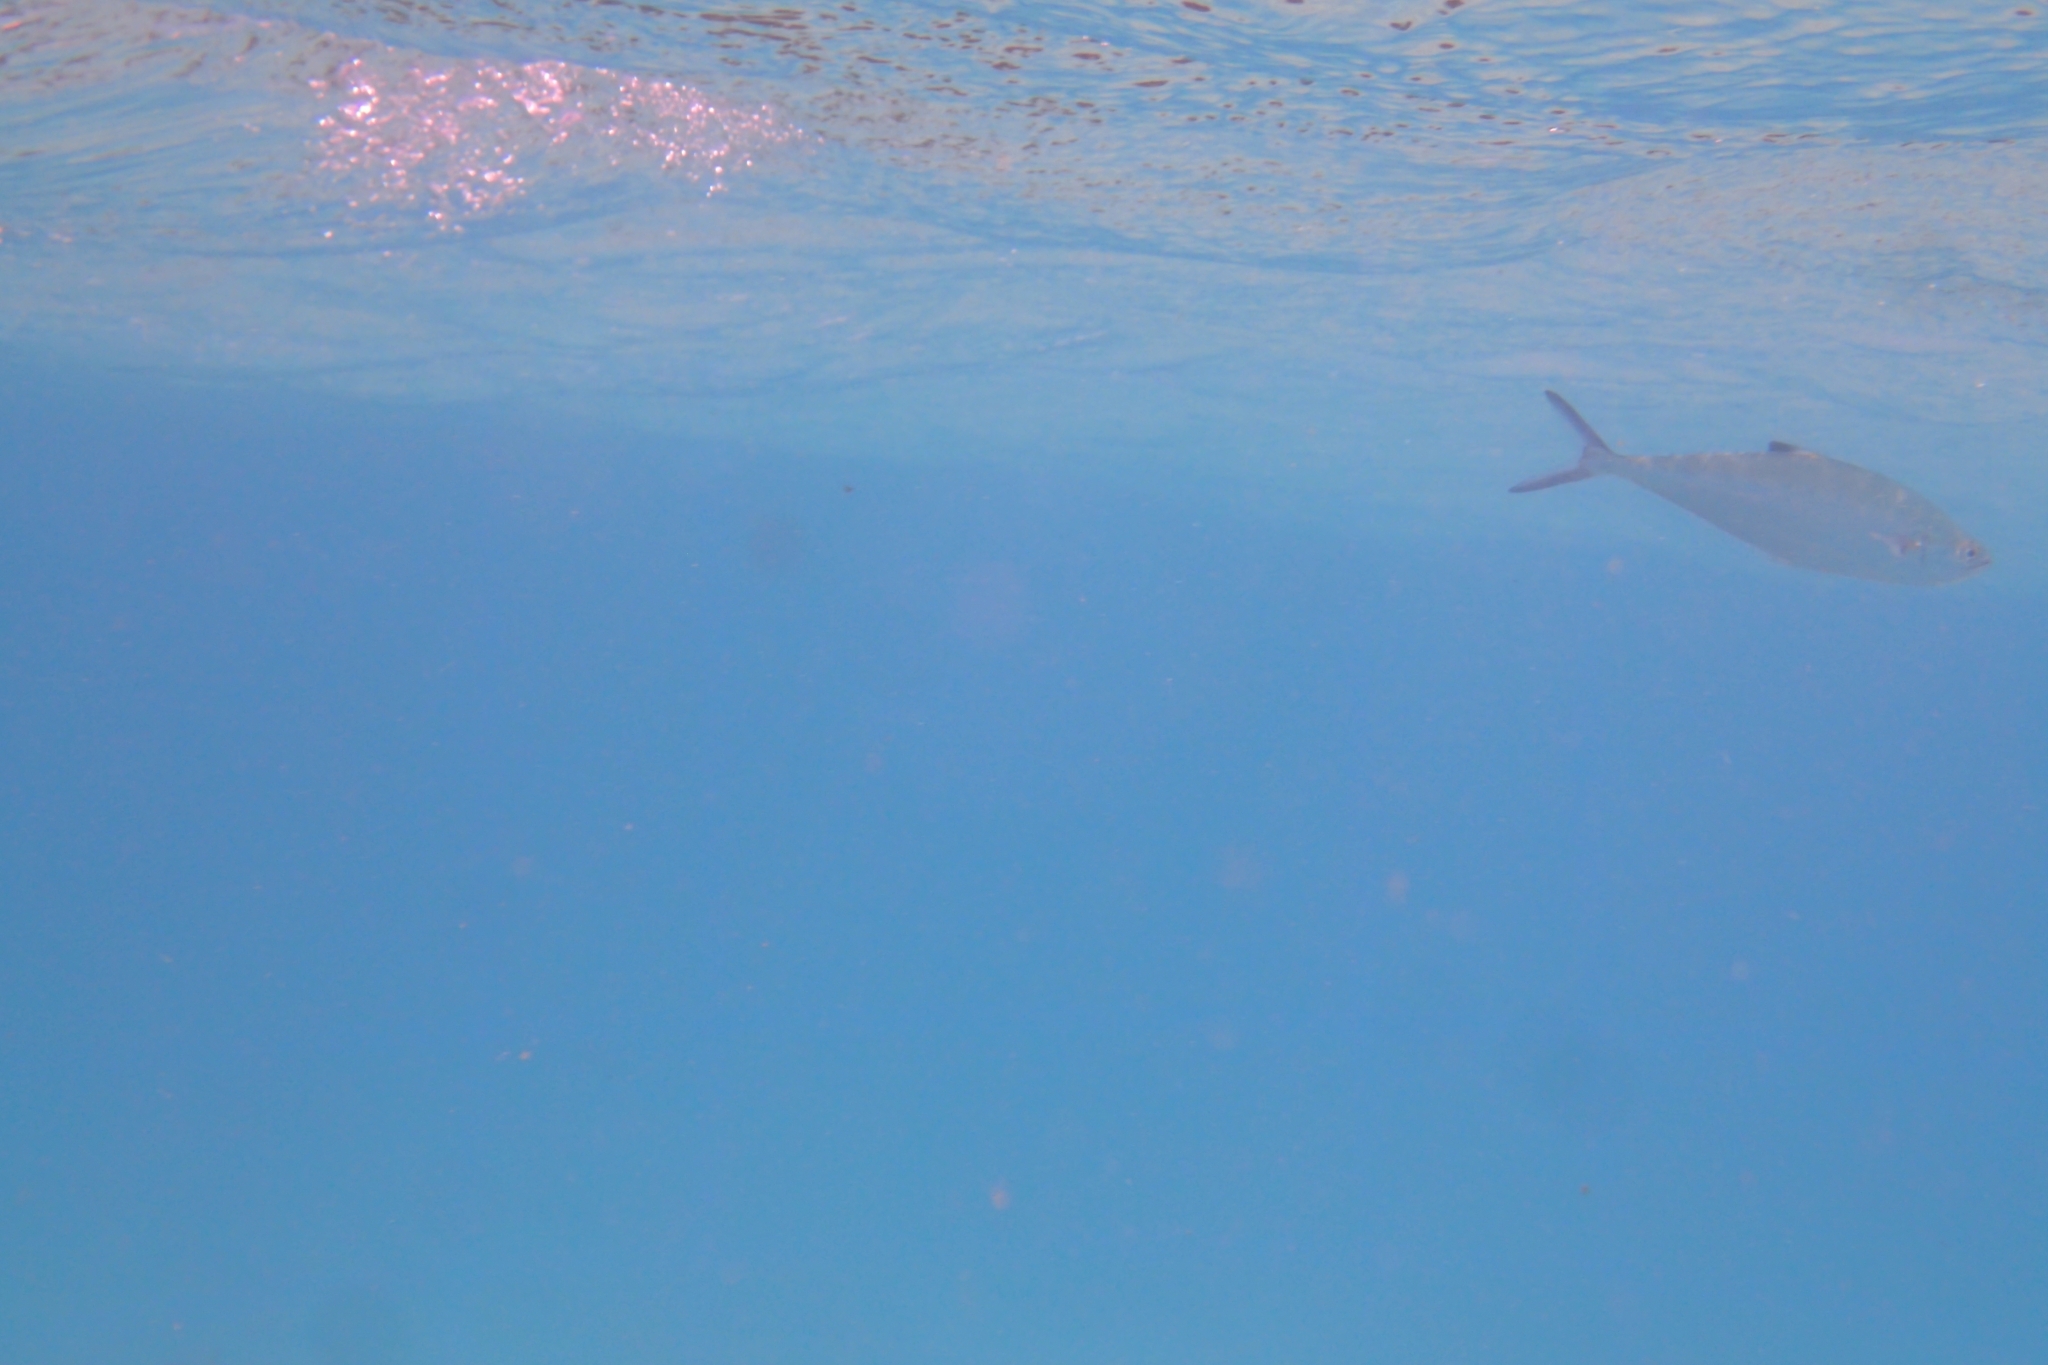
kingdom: Animalia
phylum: Chordata
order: Perciformes
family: Carangidae
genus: Scomberoides
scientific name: Scomberoides lysan
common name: Doublespotted queenfish
